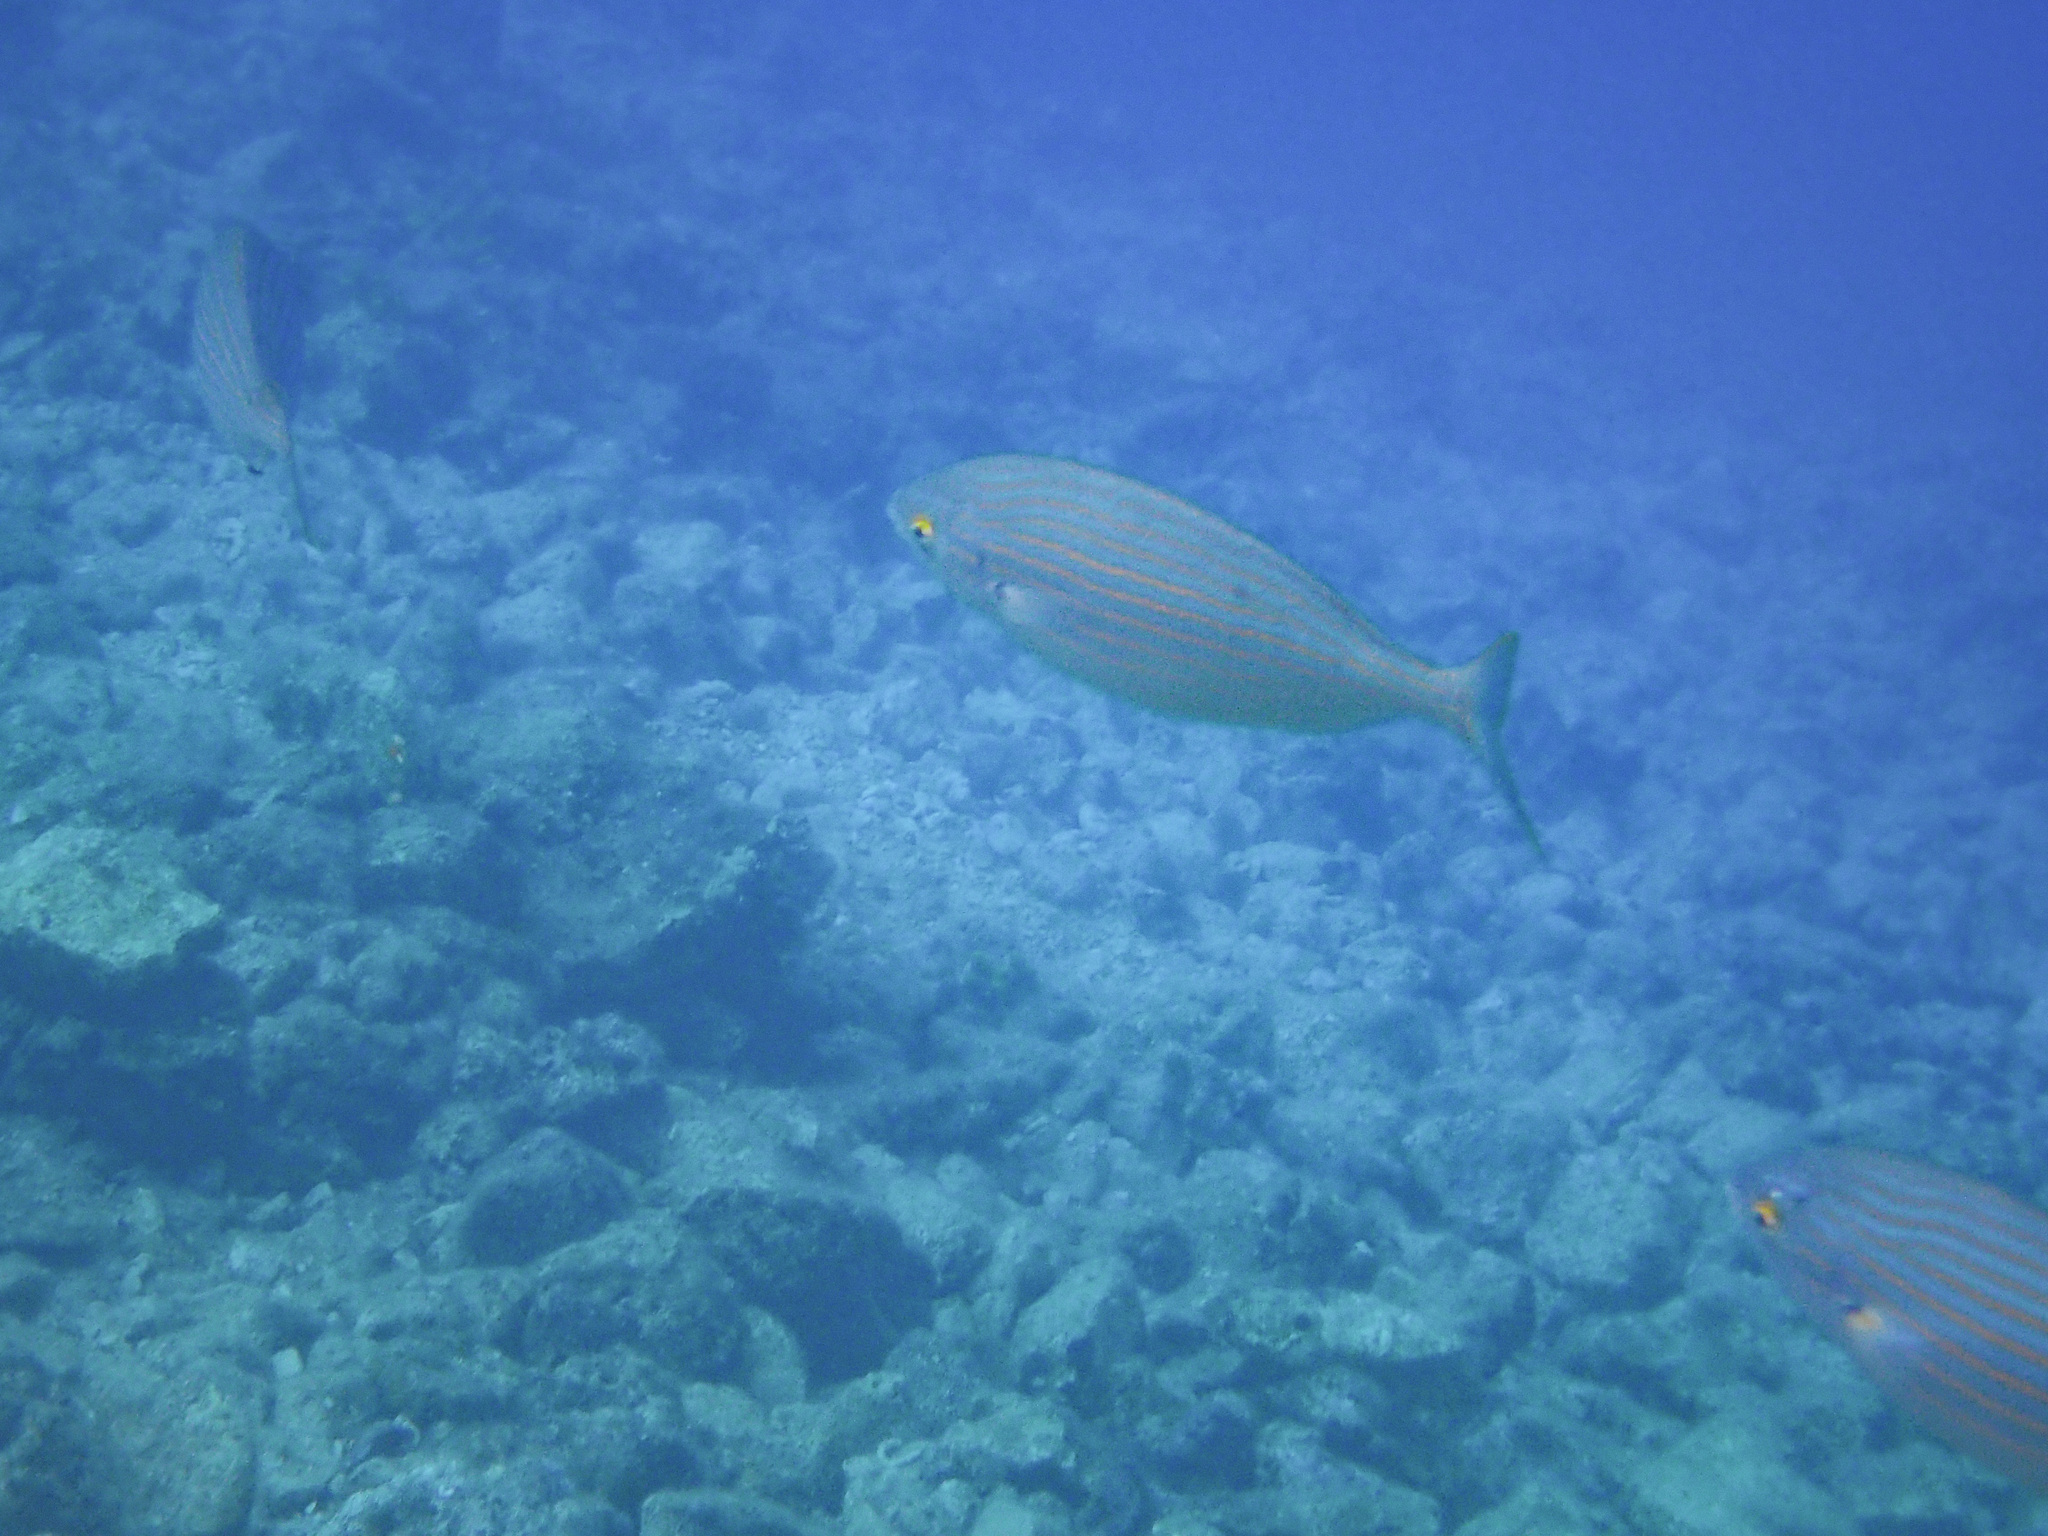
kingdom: Animalia
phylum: Chordata
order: Perciformes
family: Sparidae
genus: Sarpa
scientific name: Sarpa salpa
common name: Salema
